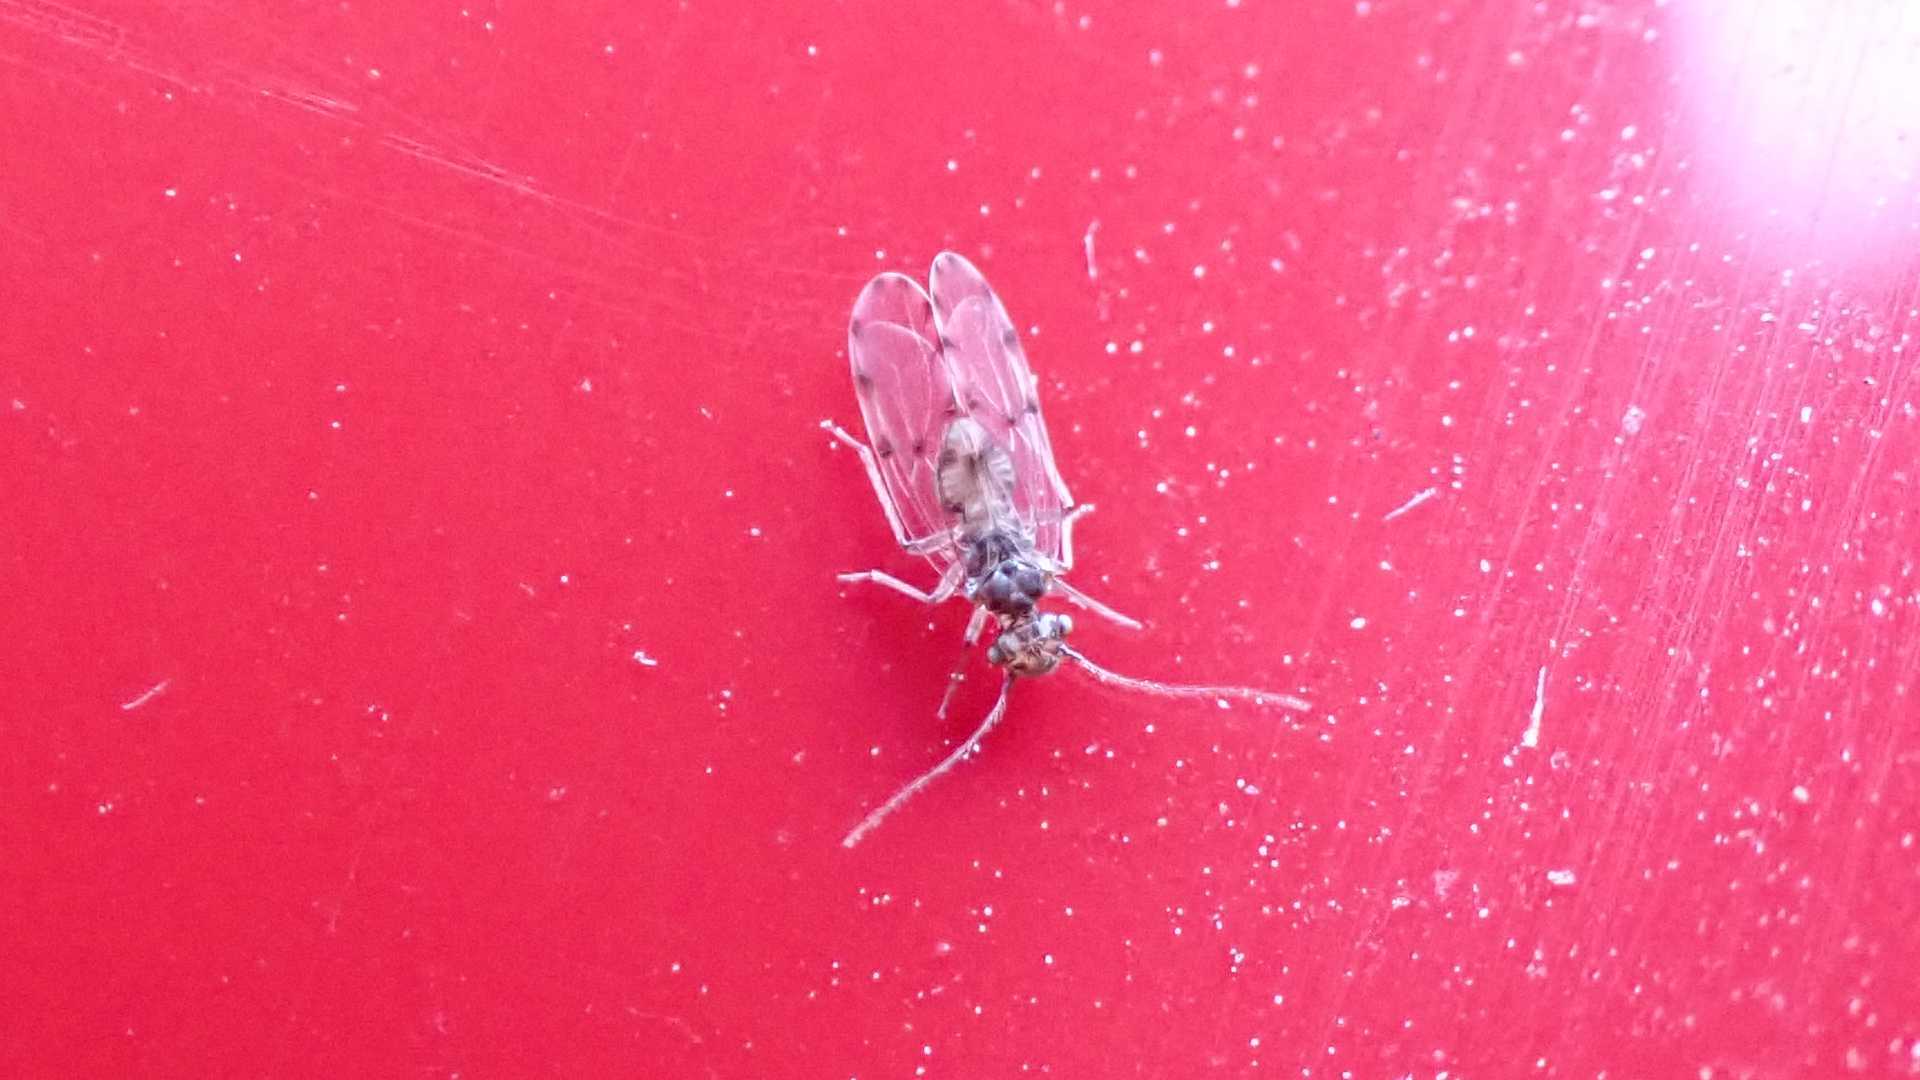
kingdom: Animalia
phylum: Arthropoda
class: Insecta
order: Psocodea
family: Ectopsocidae
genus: Ectopsocus
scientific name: Ectopsocus petersi
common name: Medium-sized bark louse
